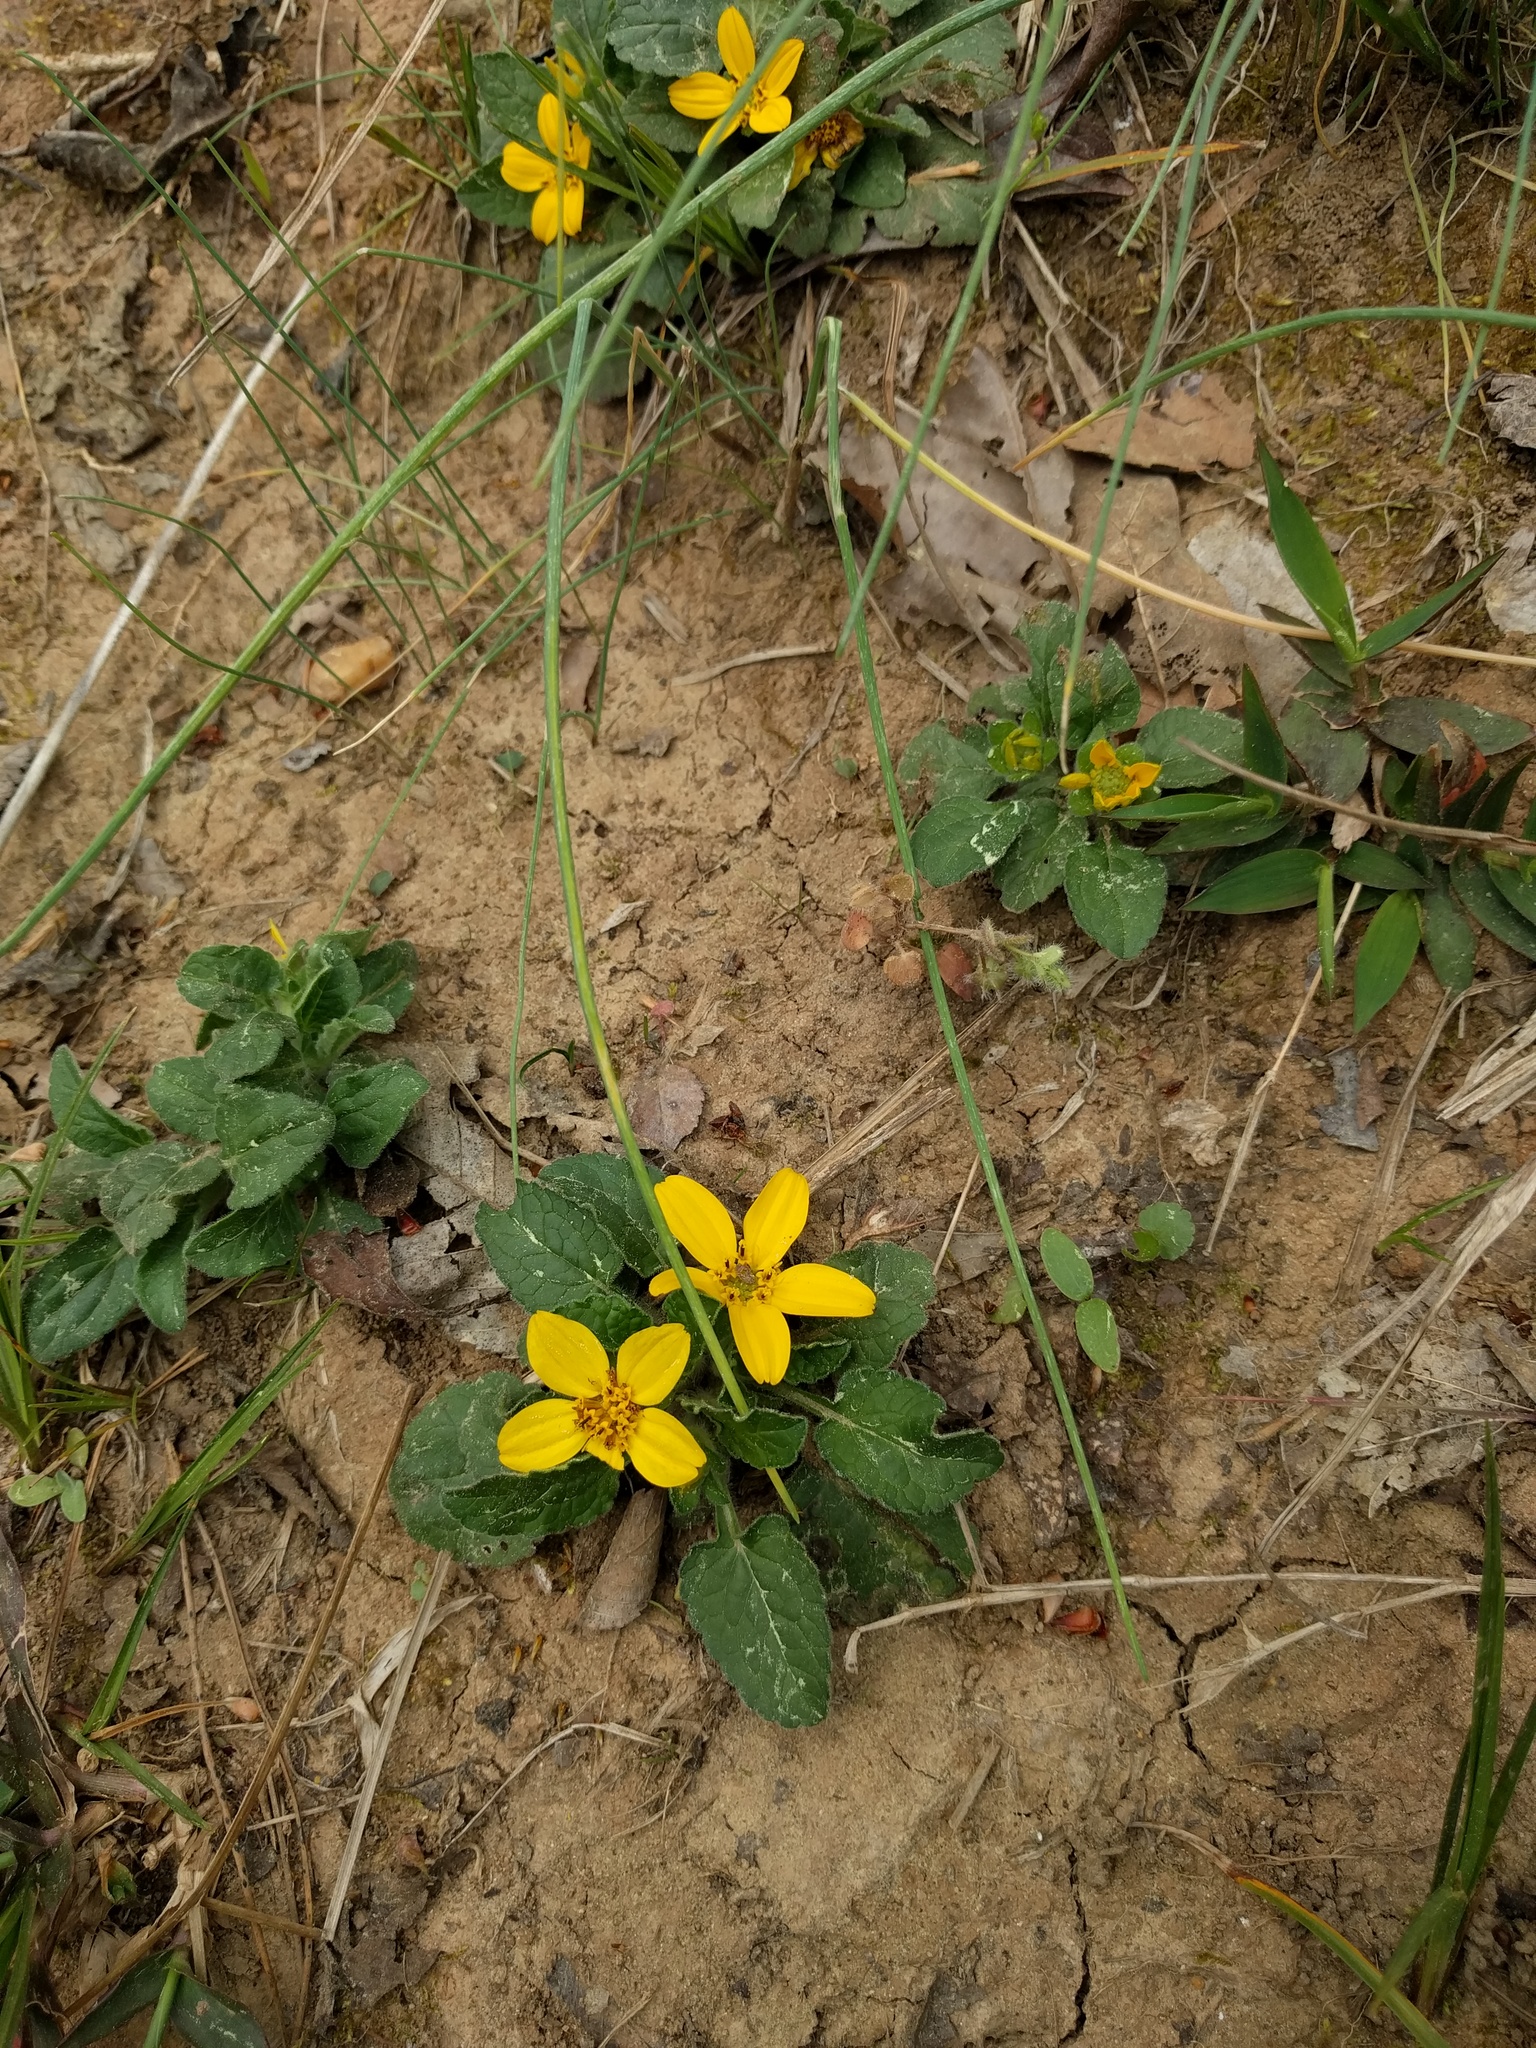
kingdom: Plantae
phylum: Tracheophyta
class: Magnoliopsida
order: Asterales
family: Asteraceae
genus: Chrysogonum
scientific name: Chrysogonum virginianum
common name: Golden-knee
